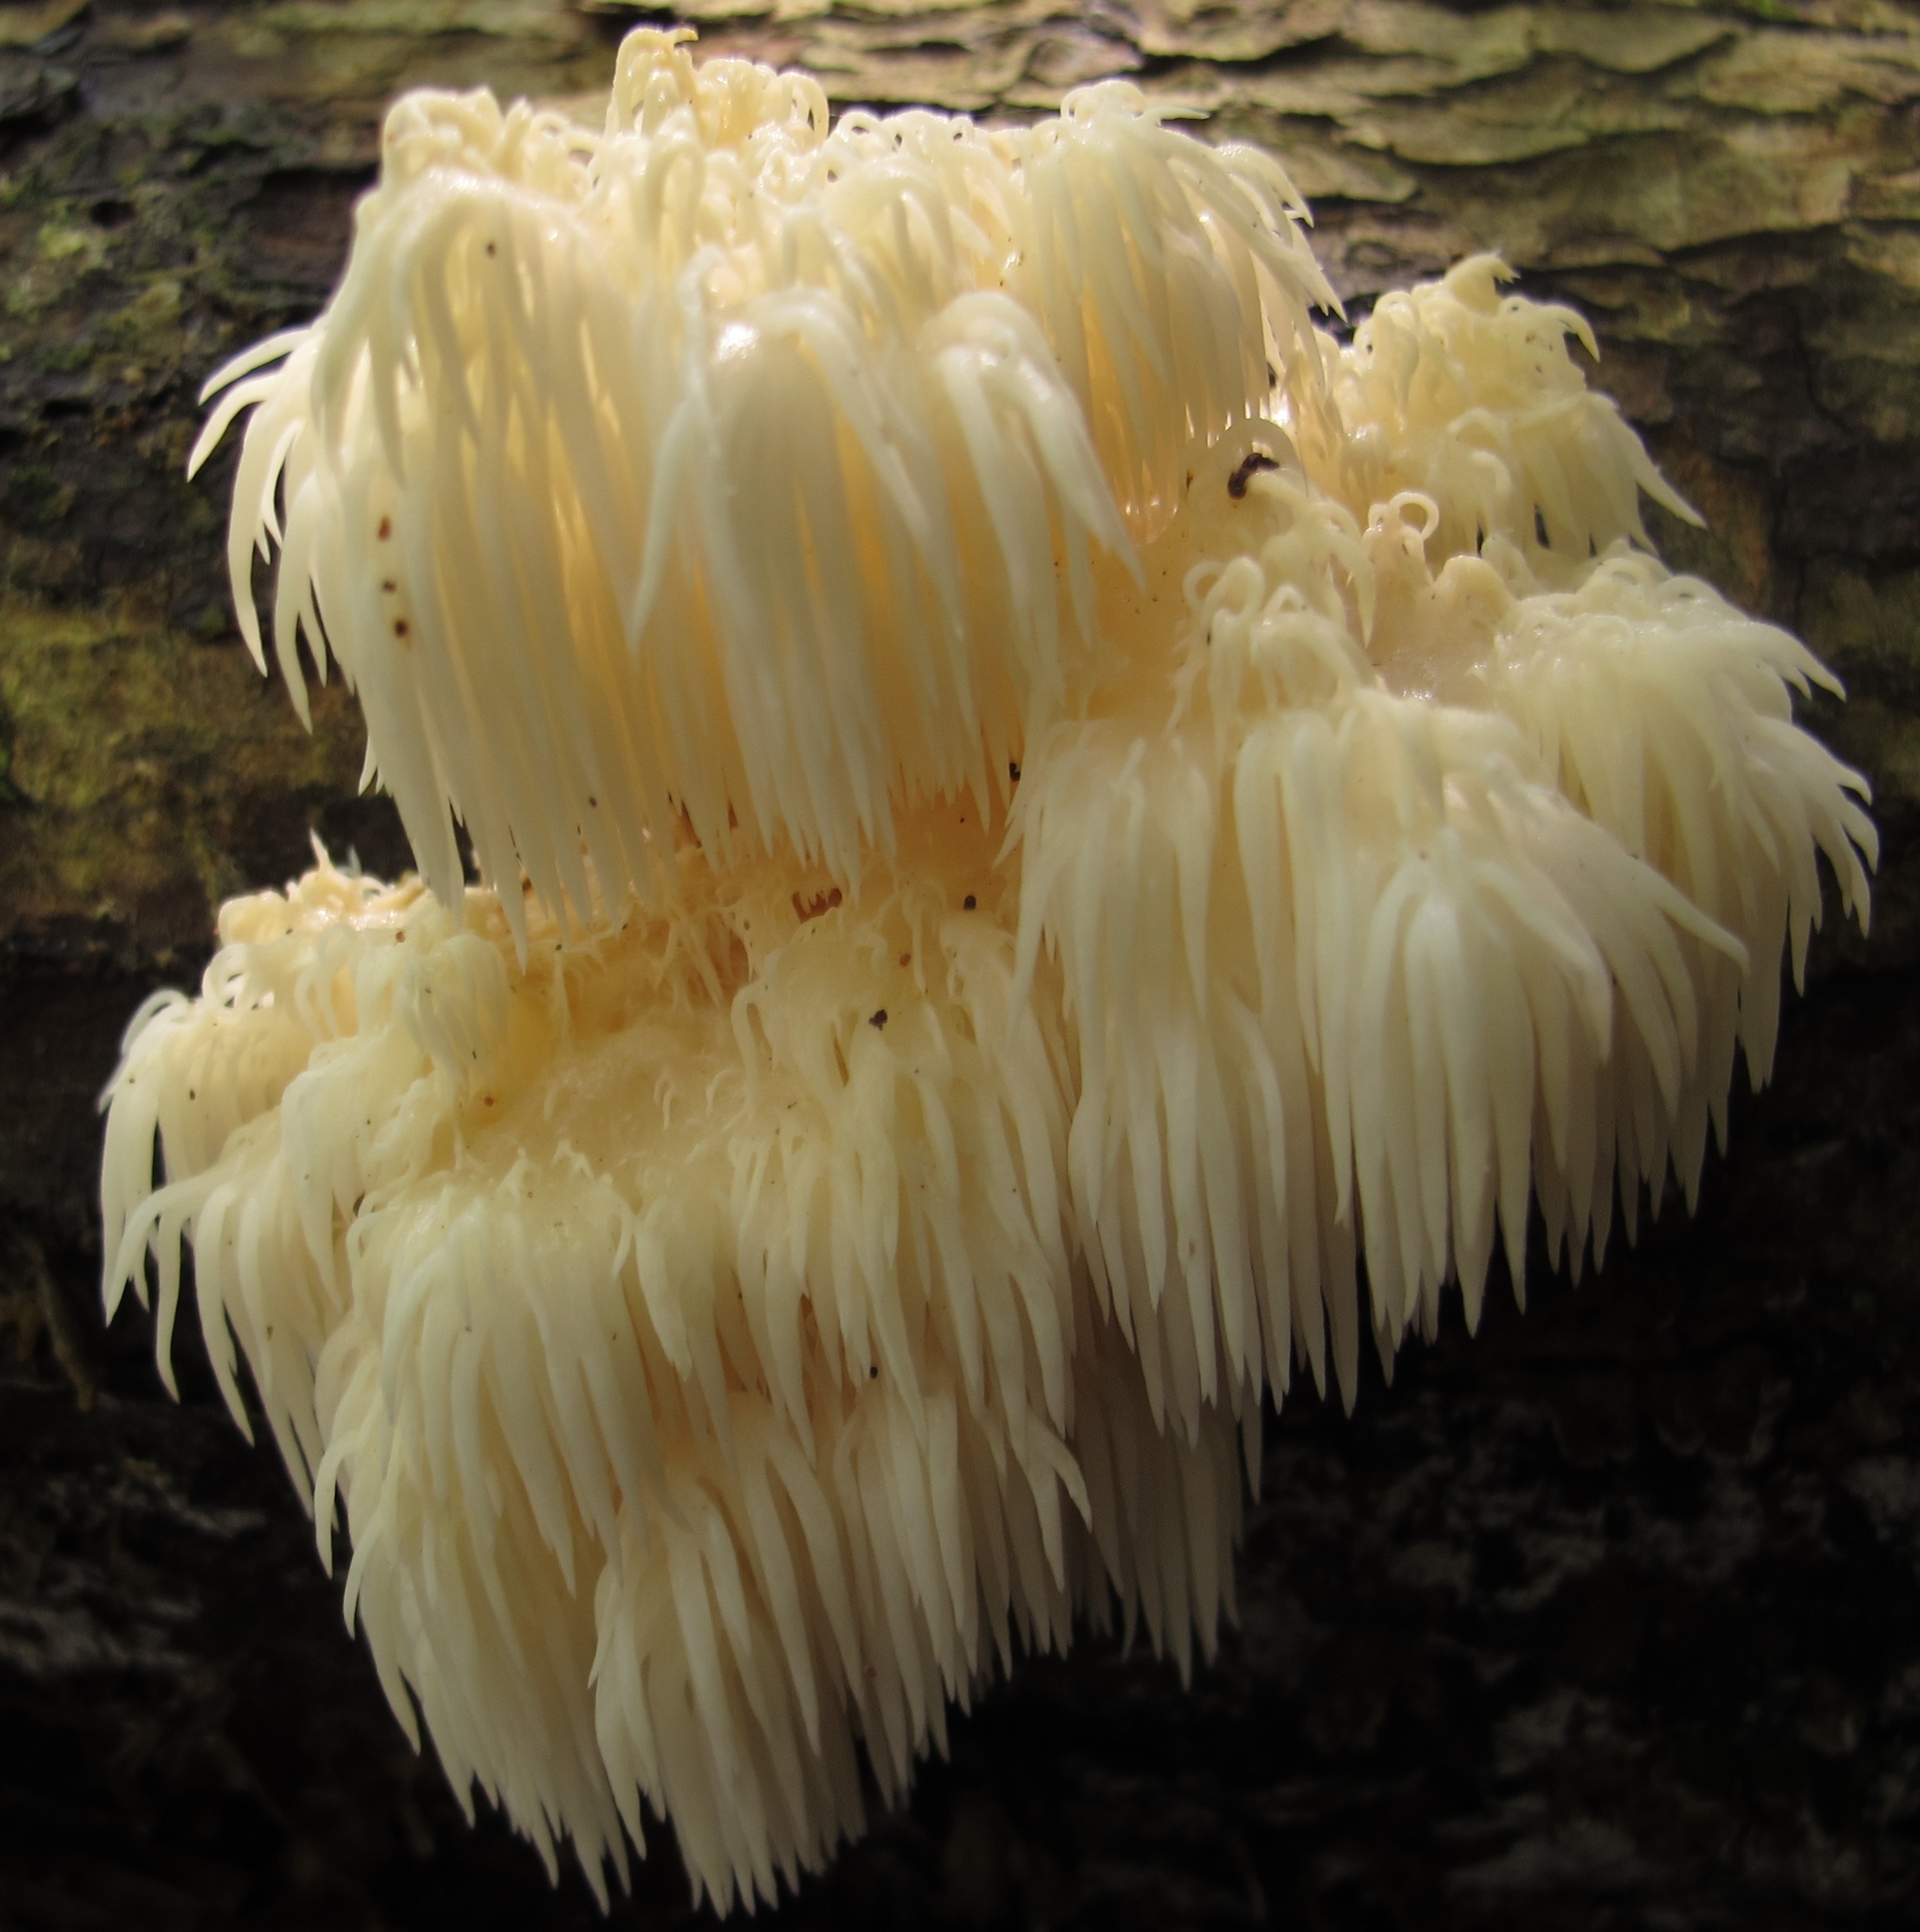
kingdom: Fungi
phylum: Basidiomycota
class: Agaricomycetes
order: Russulales
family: Hericiaceae
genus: Hericium
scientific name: Hericium americanum
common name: Bear's head tooth
